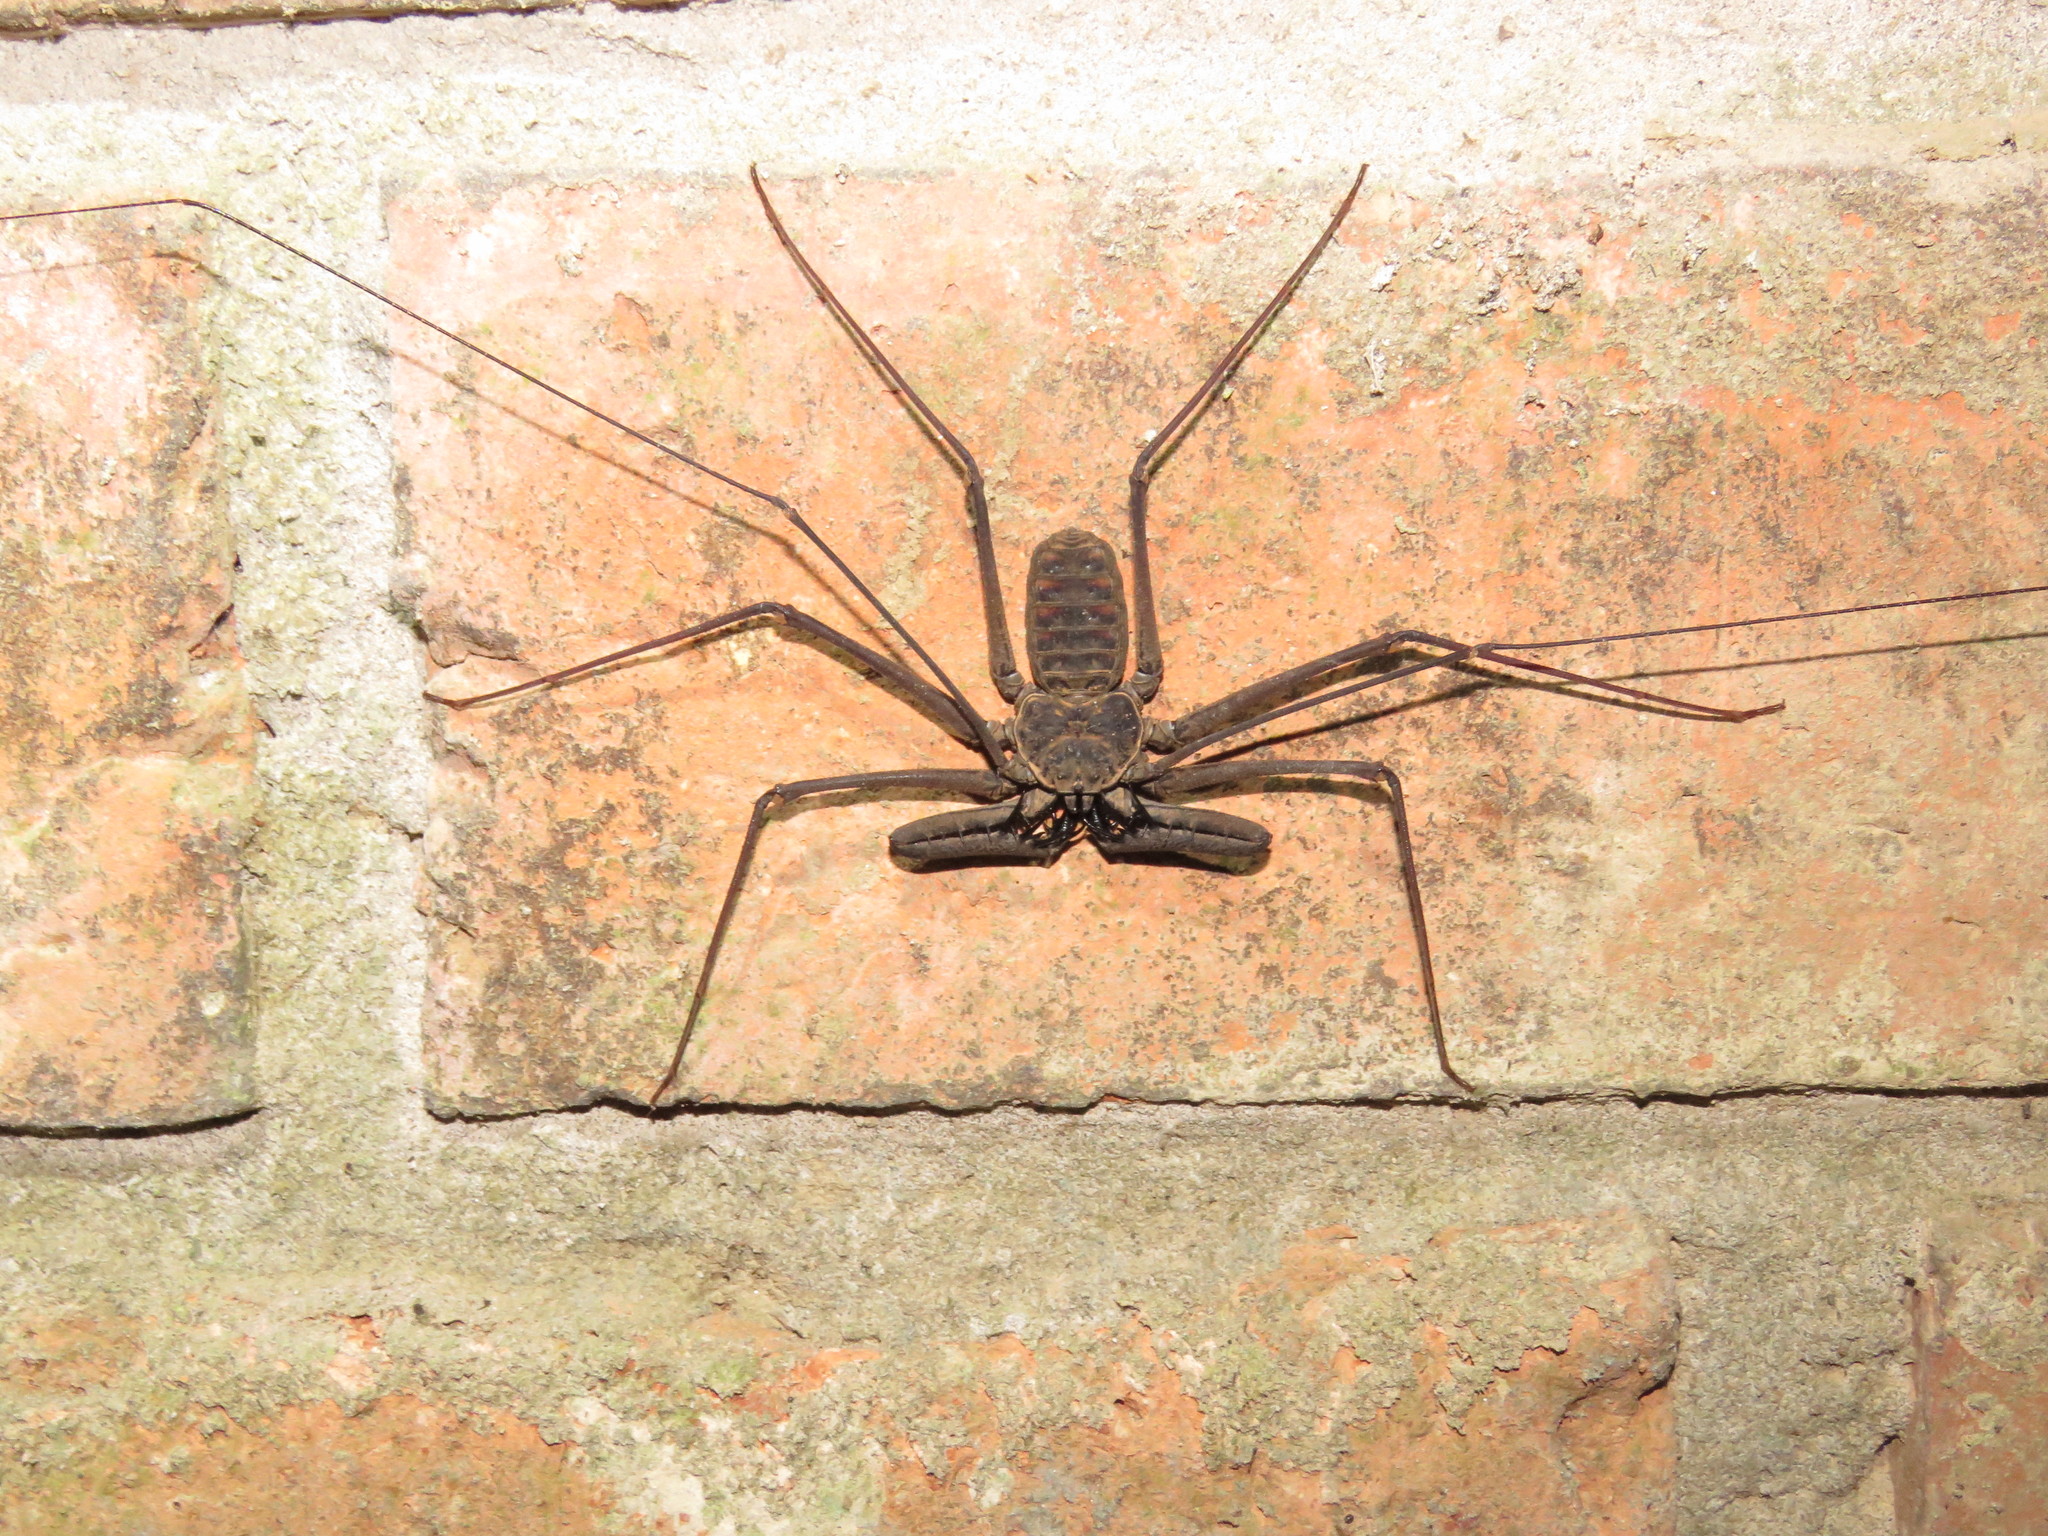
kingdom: Animalia
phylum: Arthropoda
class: Arachnida
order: Amblypygi
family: Phrynidae
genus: Heterophrynus
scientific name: Heterophrynus longicornis
